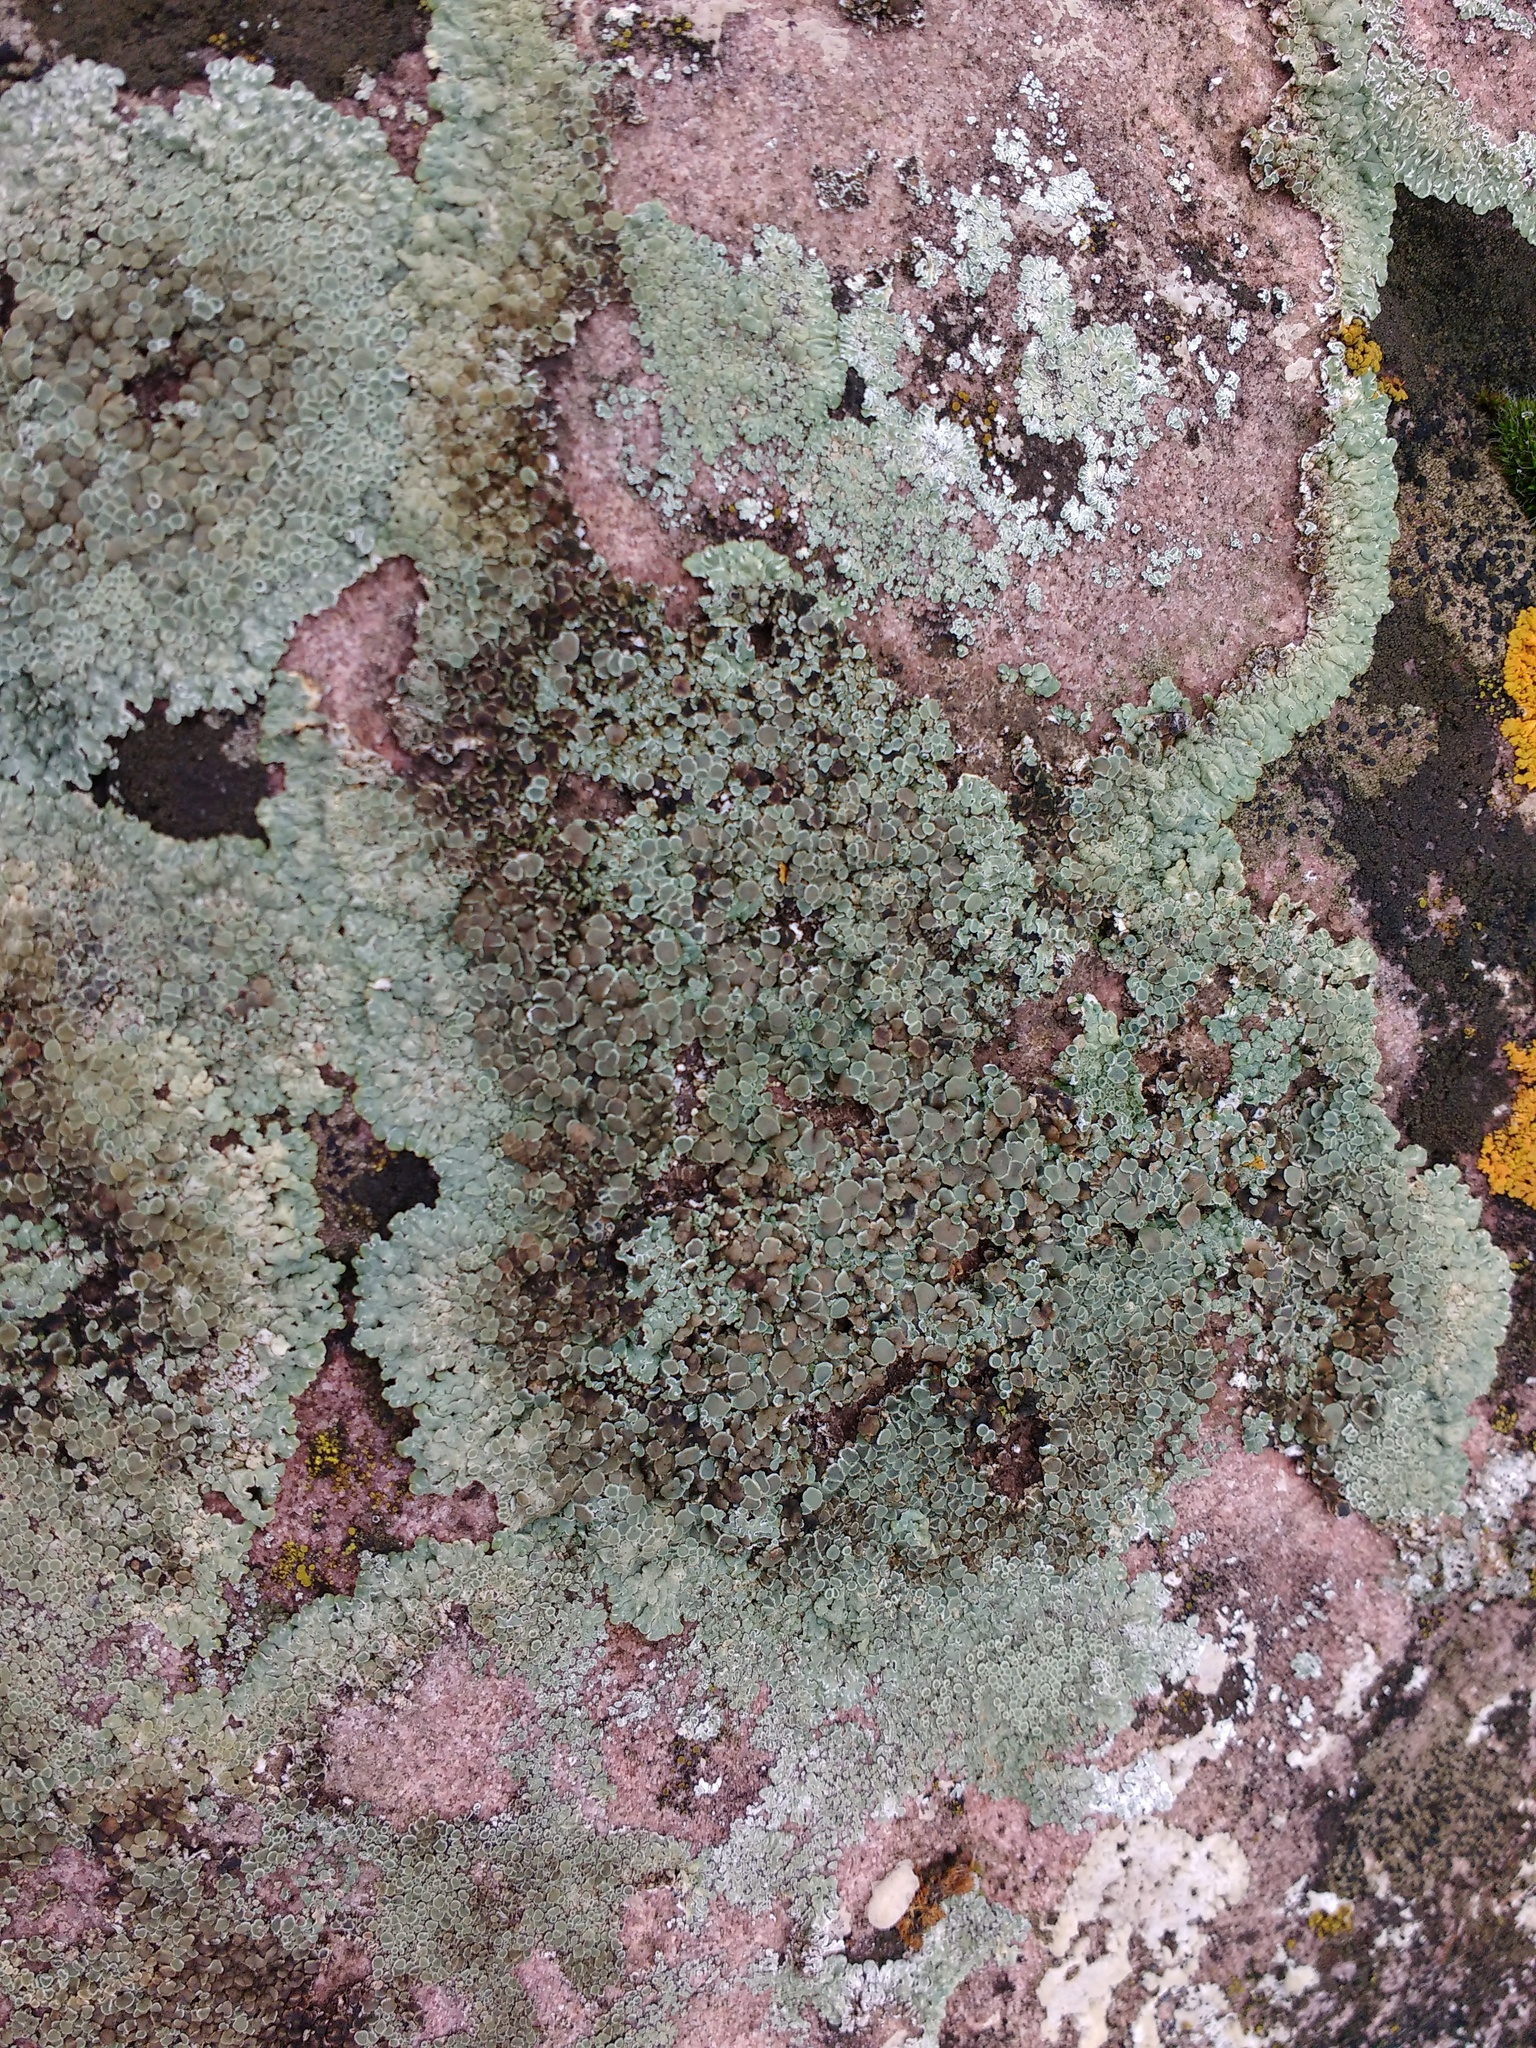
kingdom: Fungi
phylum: Ascomycota
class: Lecanoromycetes
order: Lecanorales
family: Lecanoraceae
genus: Protoparmeliopsis
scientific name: Protoparmeliopsis muralis
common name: Stonewall rim lichen
